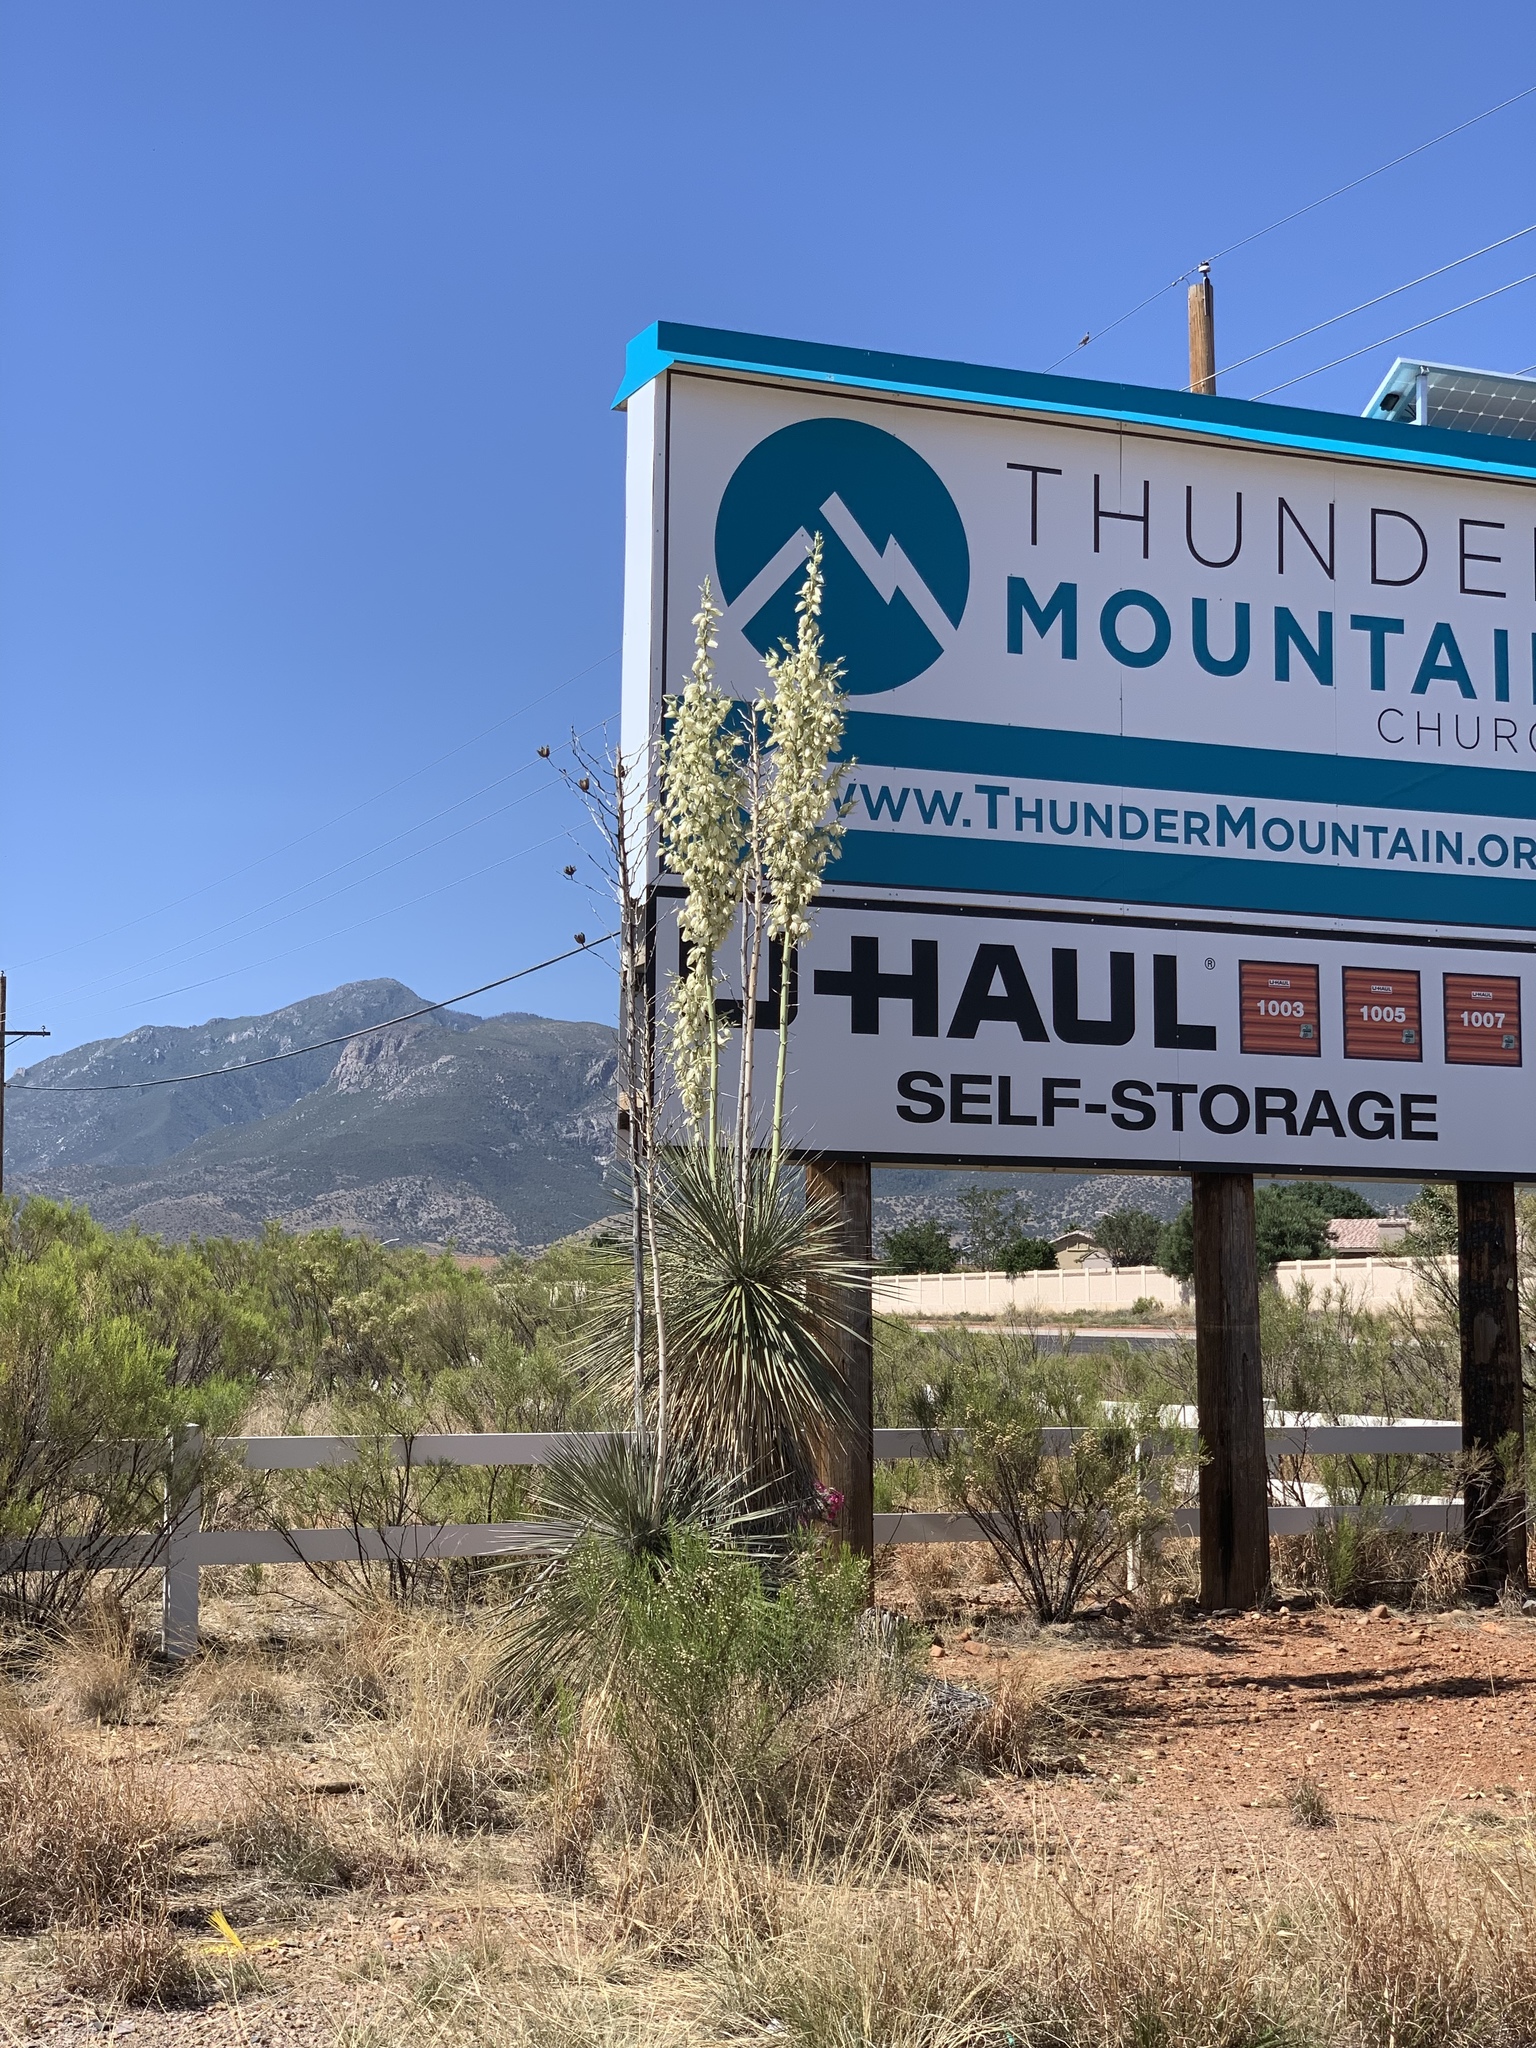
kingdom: Plantae
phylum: Tracheophyta
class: Liliopsida
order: Asparagales
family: Asparagaceae
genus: Yucca
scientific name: Yucca elata
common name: Palmella
